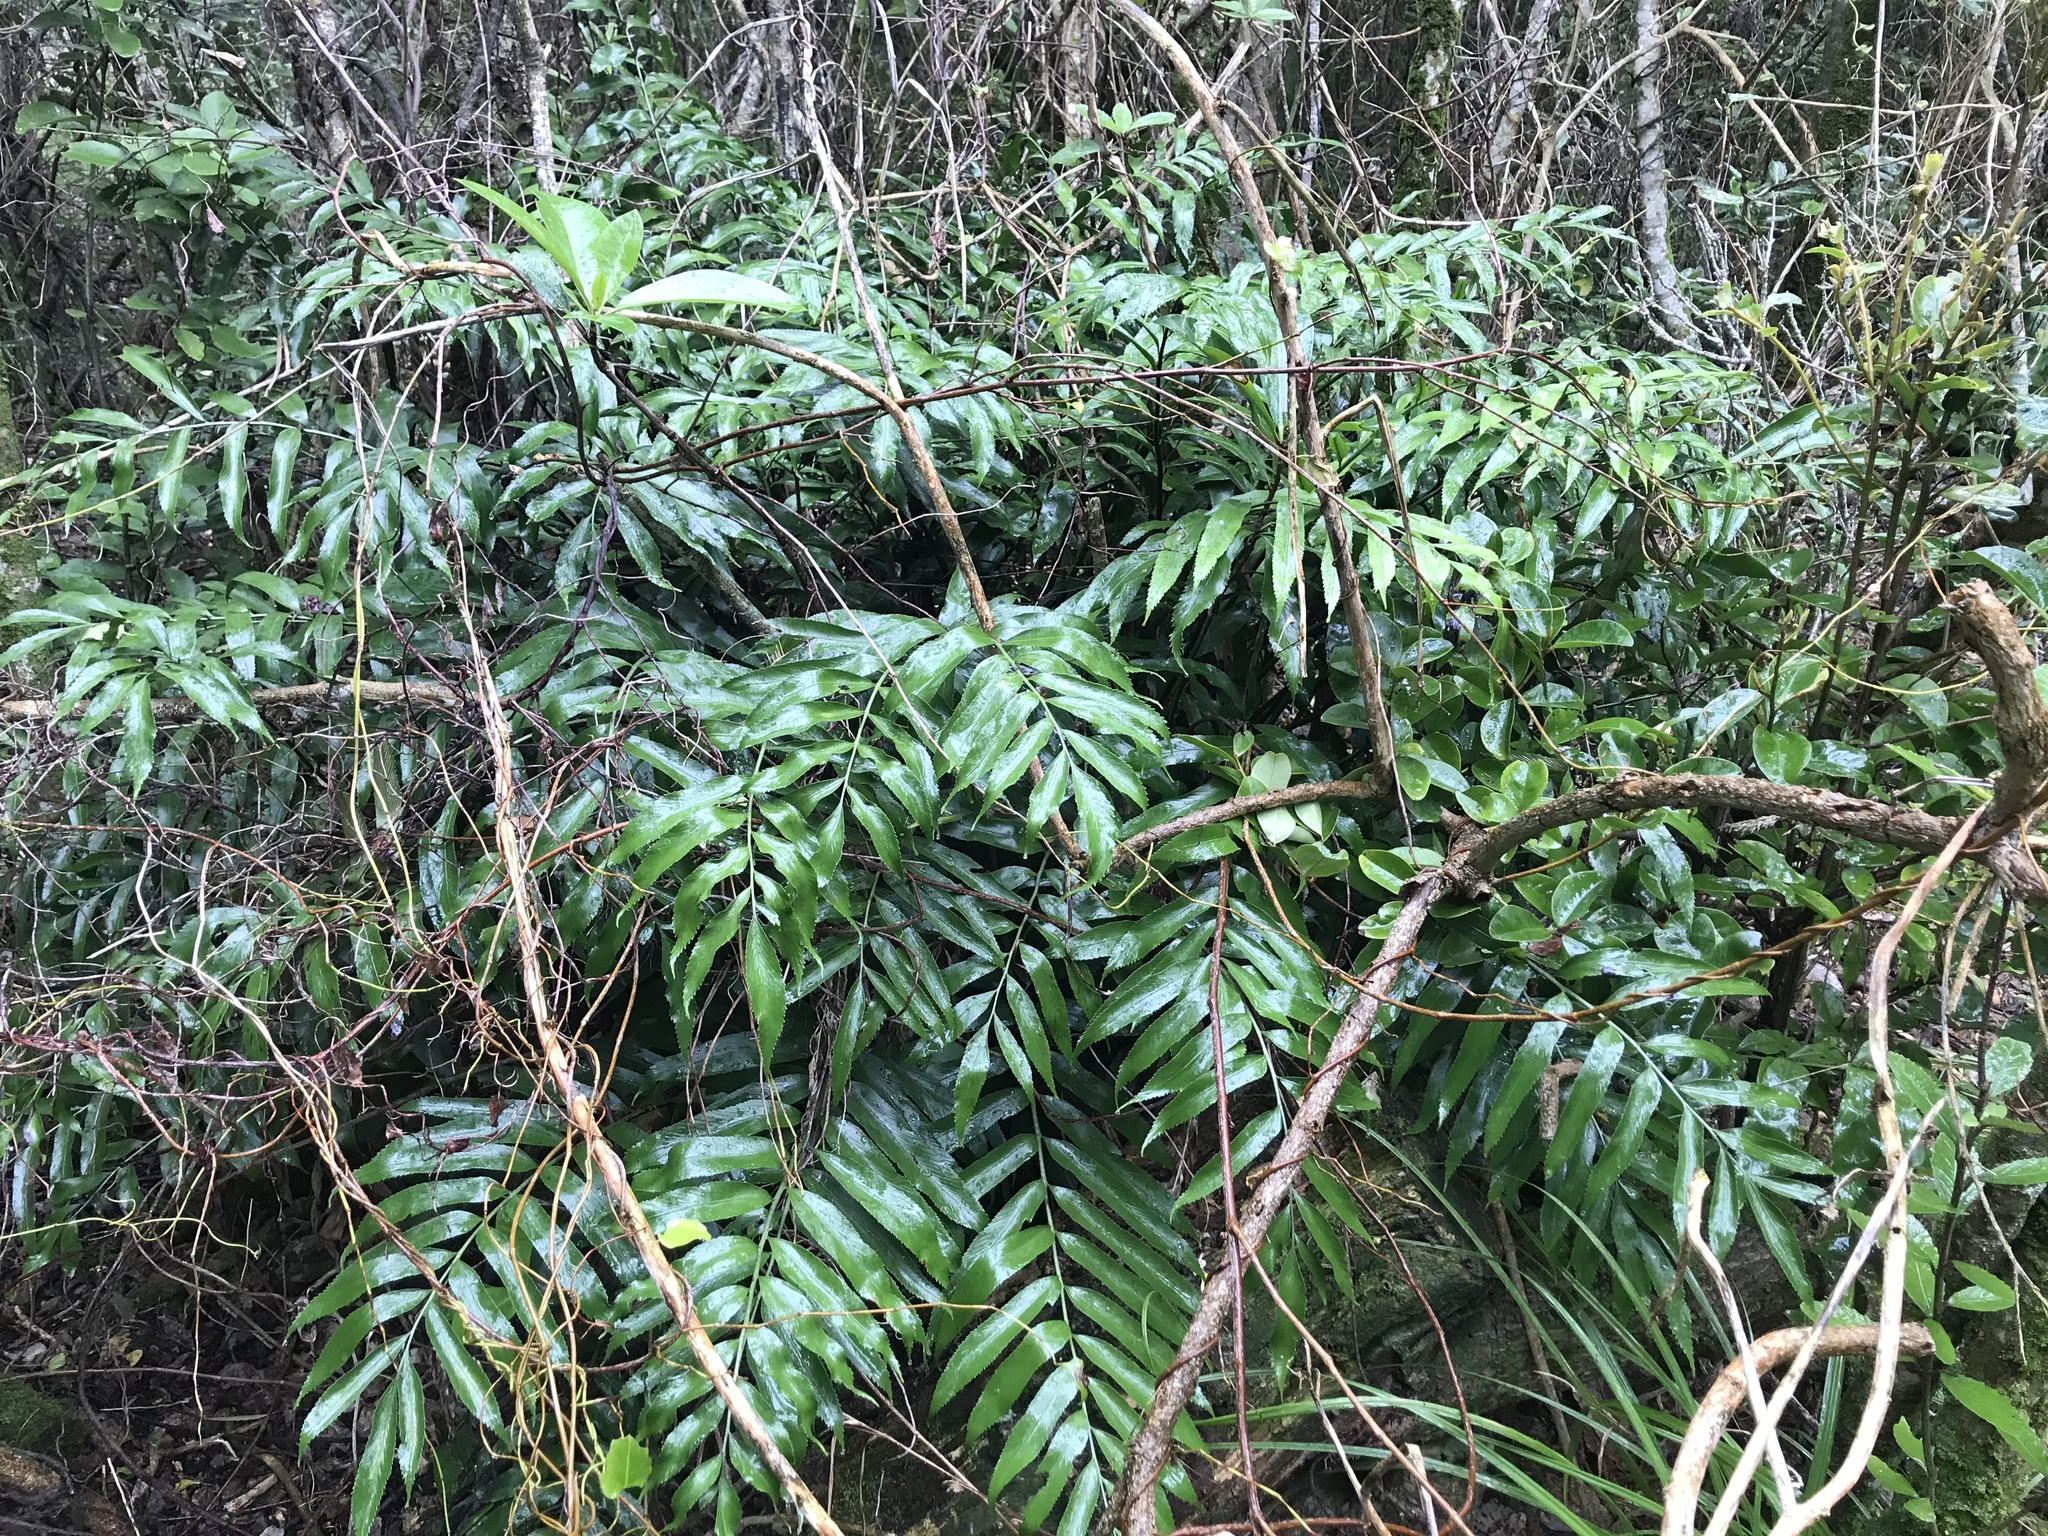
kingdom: Plantae
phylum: Tracheophyta
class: Polypodiopsida
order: Polypodiales
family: Aspleniaceae
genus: Asplenium
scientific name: Asplenium oblongifolium
